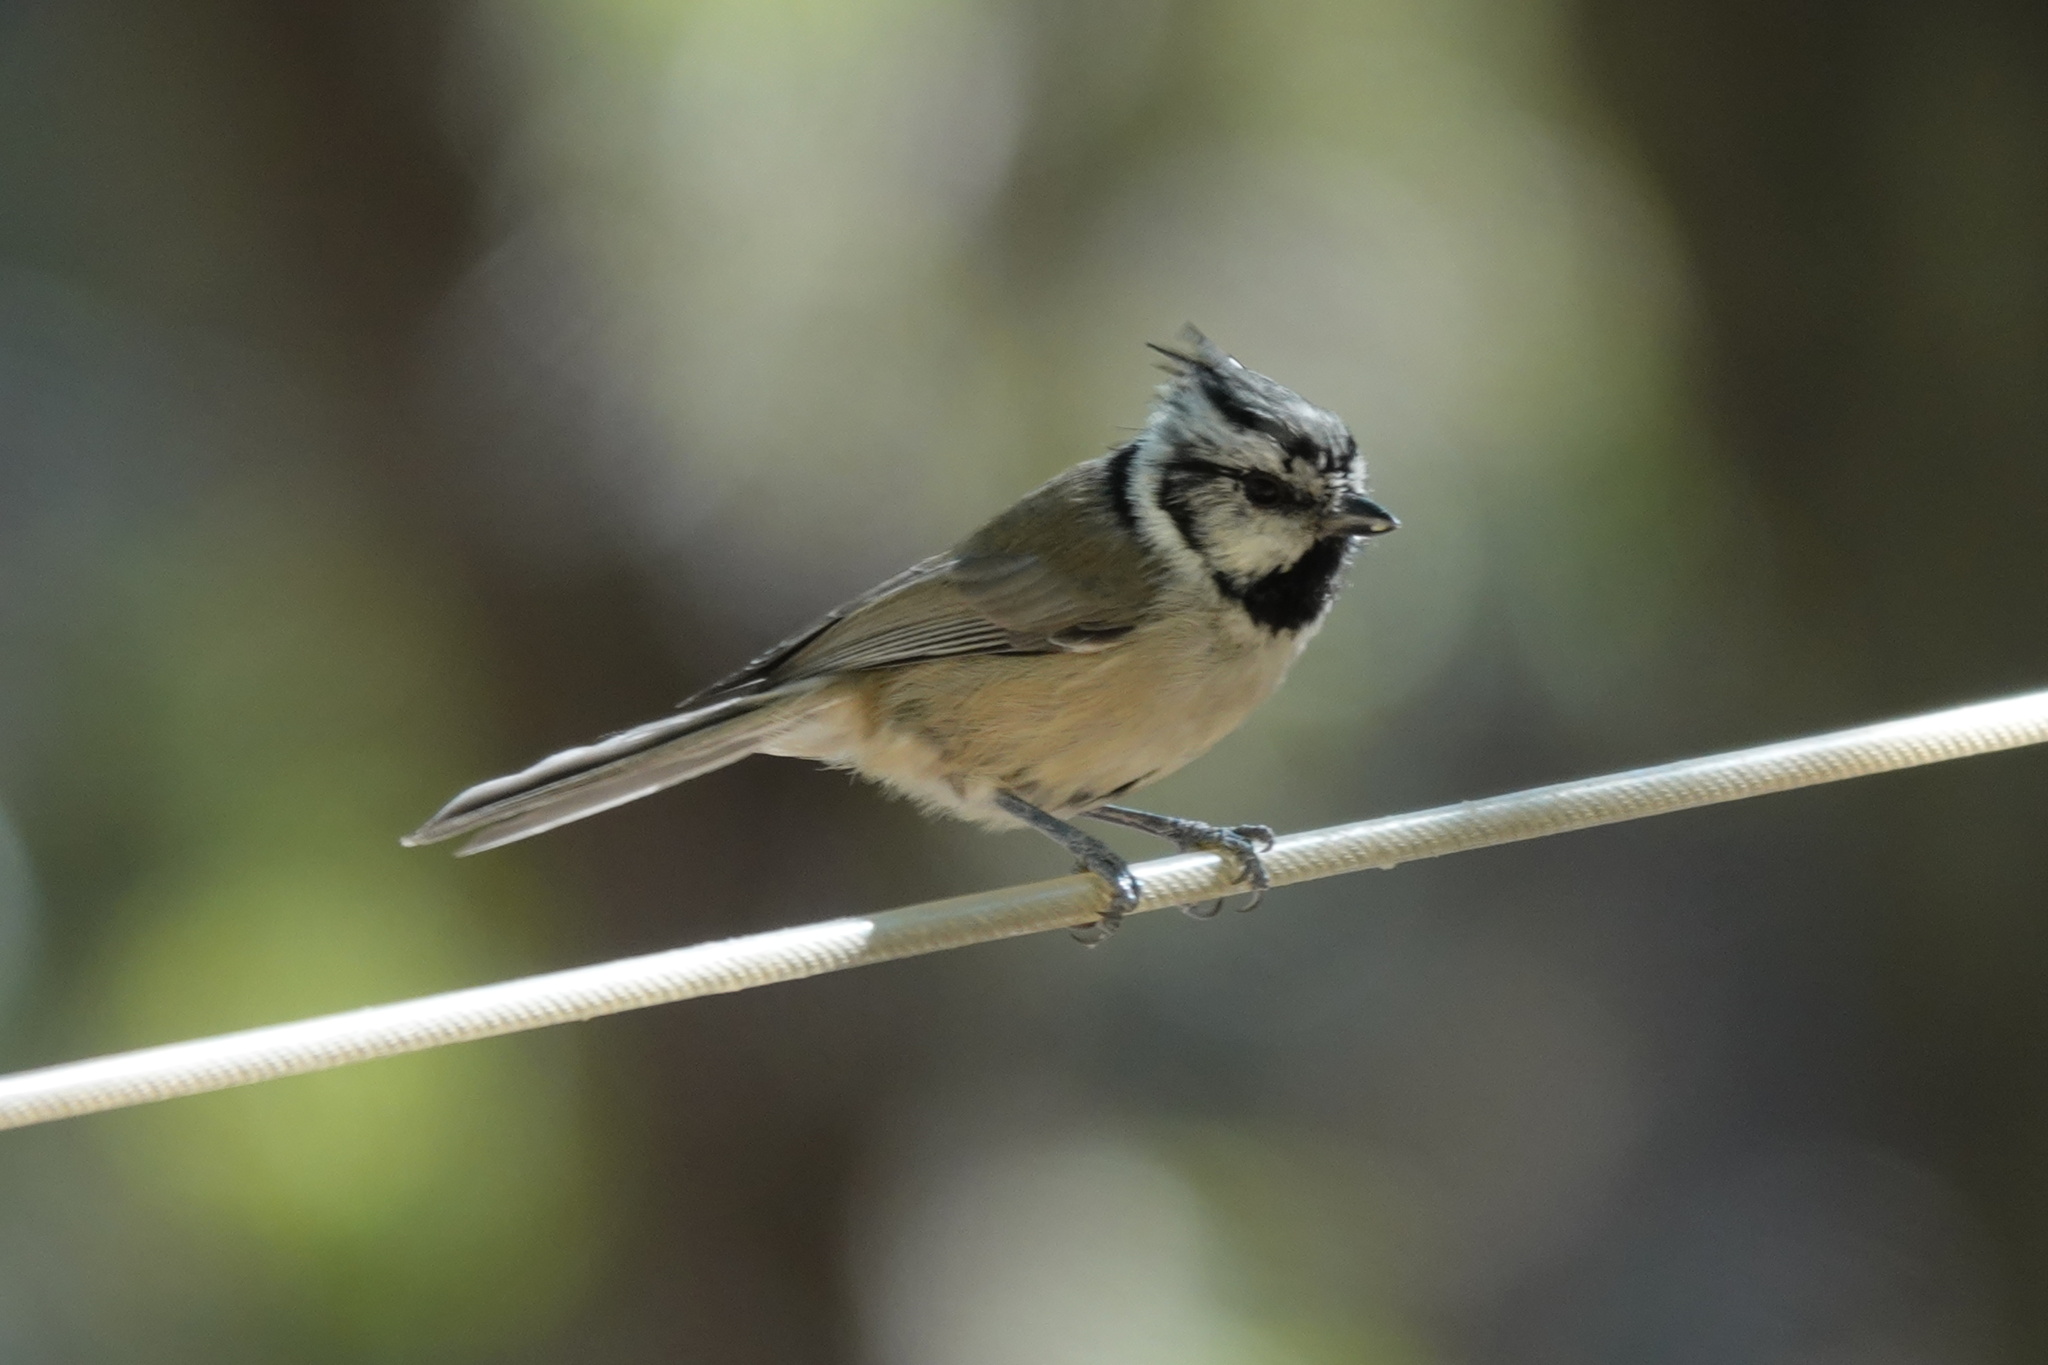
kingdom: Animalia
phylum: Chordata
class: Aves
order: Passeriformes
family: Paridae
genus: Baeolophus
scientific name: Baeolophus wollweberi
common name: Bridled titmouse
